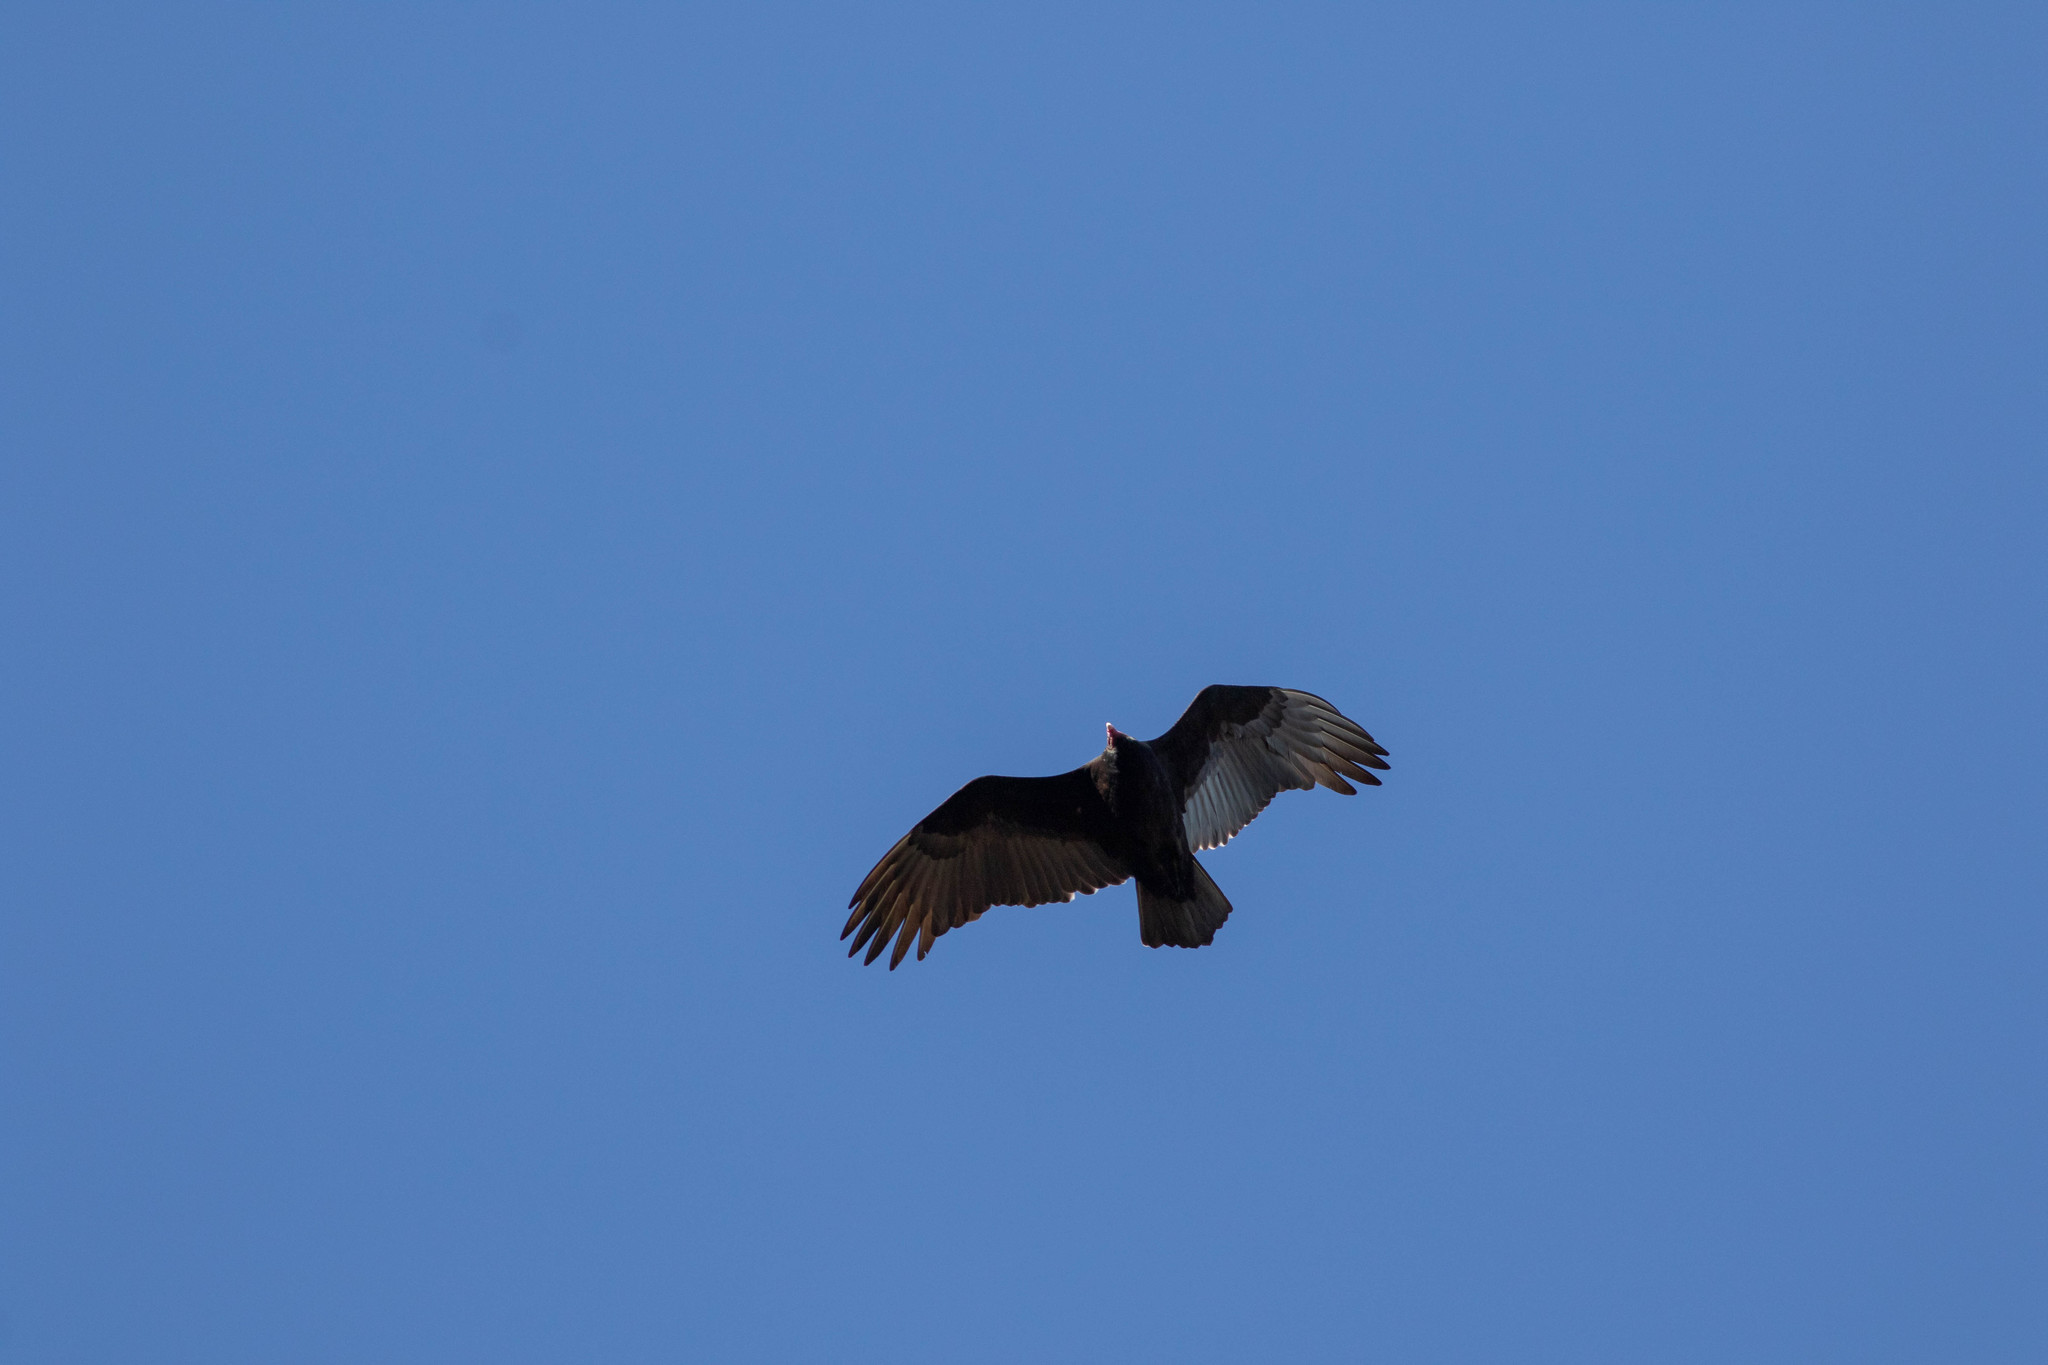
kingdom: Animalia
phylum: Chordata
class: Aves
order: Accipitriformes
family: Cathartidae
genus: Cathartes
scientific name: Cathartes aura
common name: Turkey vulture
